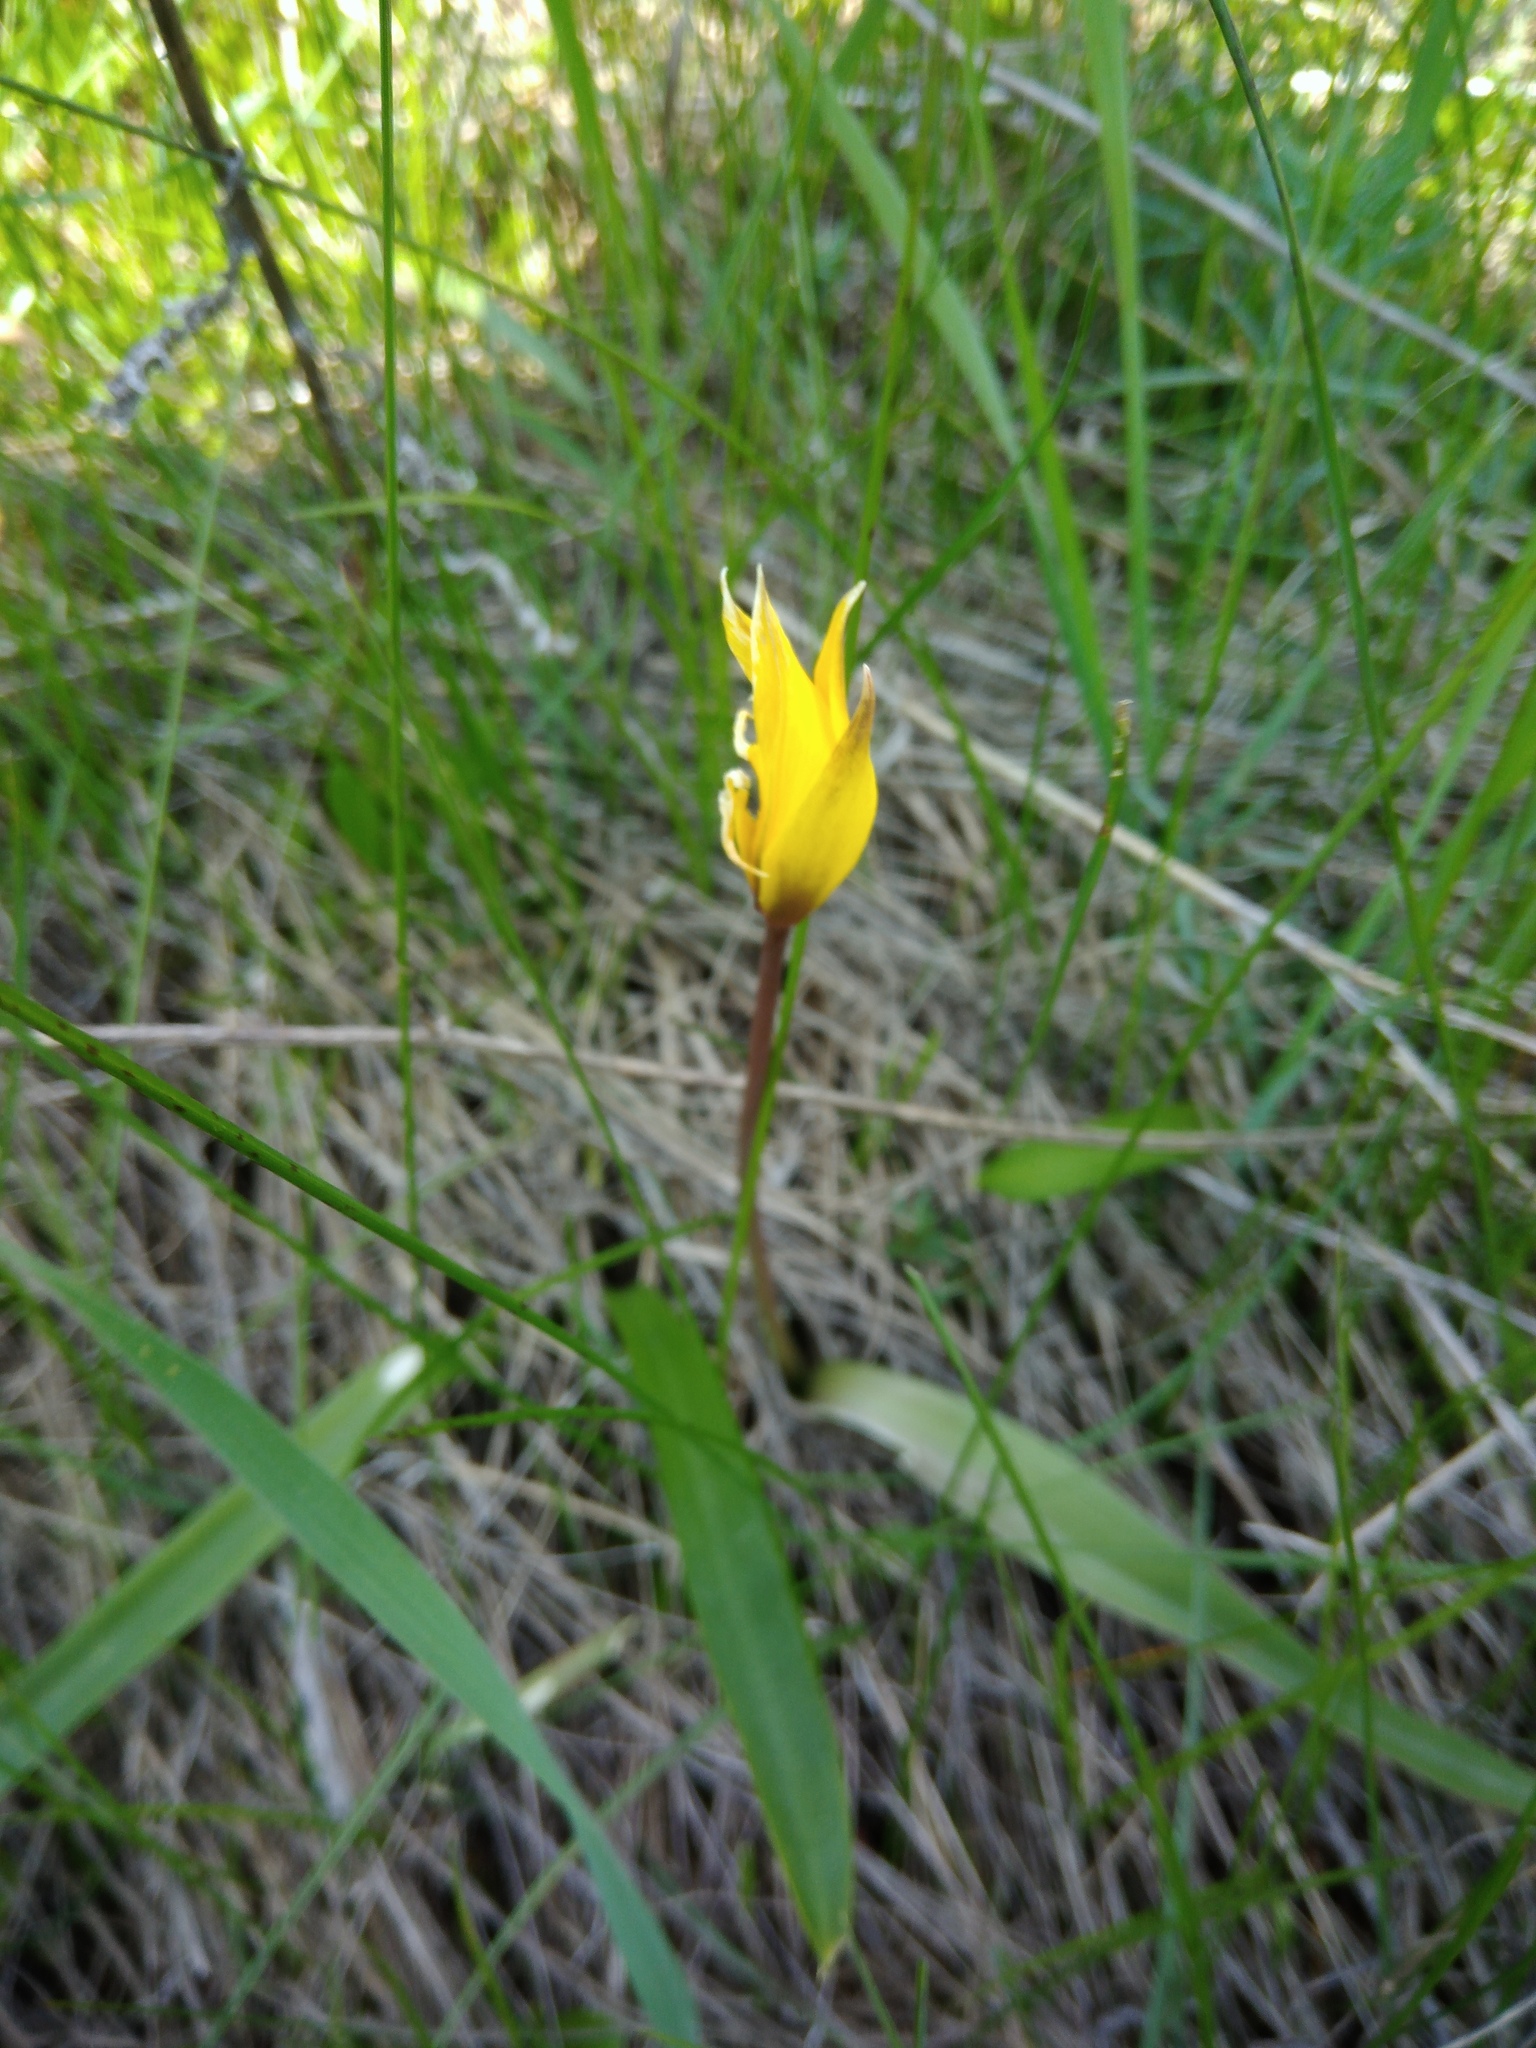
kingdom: Plantae
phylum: Tracheophyta
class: Liliopsida
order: Liliales
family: Liliaceae
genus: Tulipa
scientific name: Tulipa sylvestris
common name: Wild tulip
